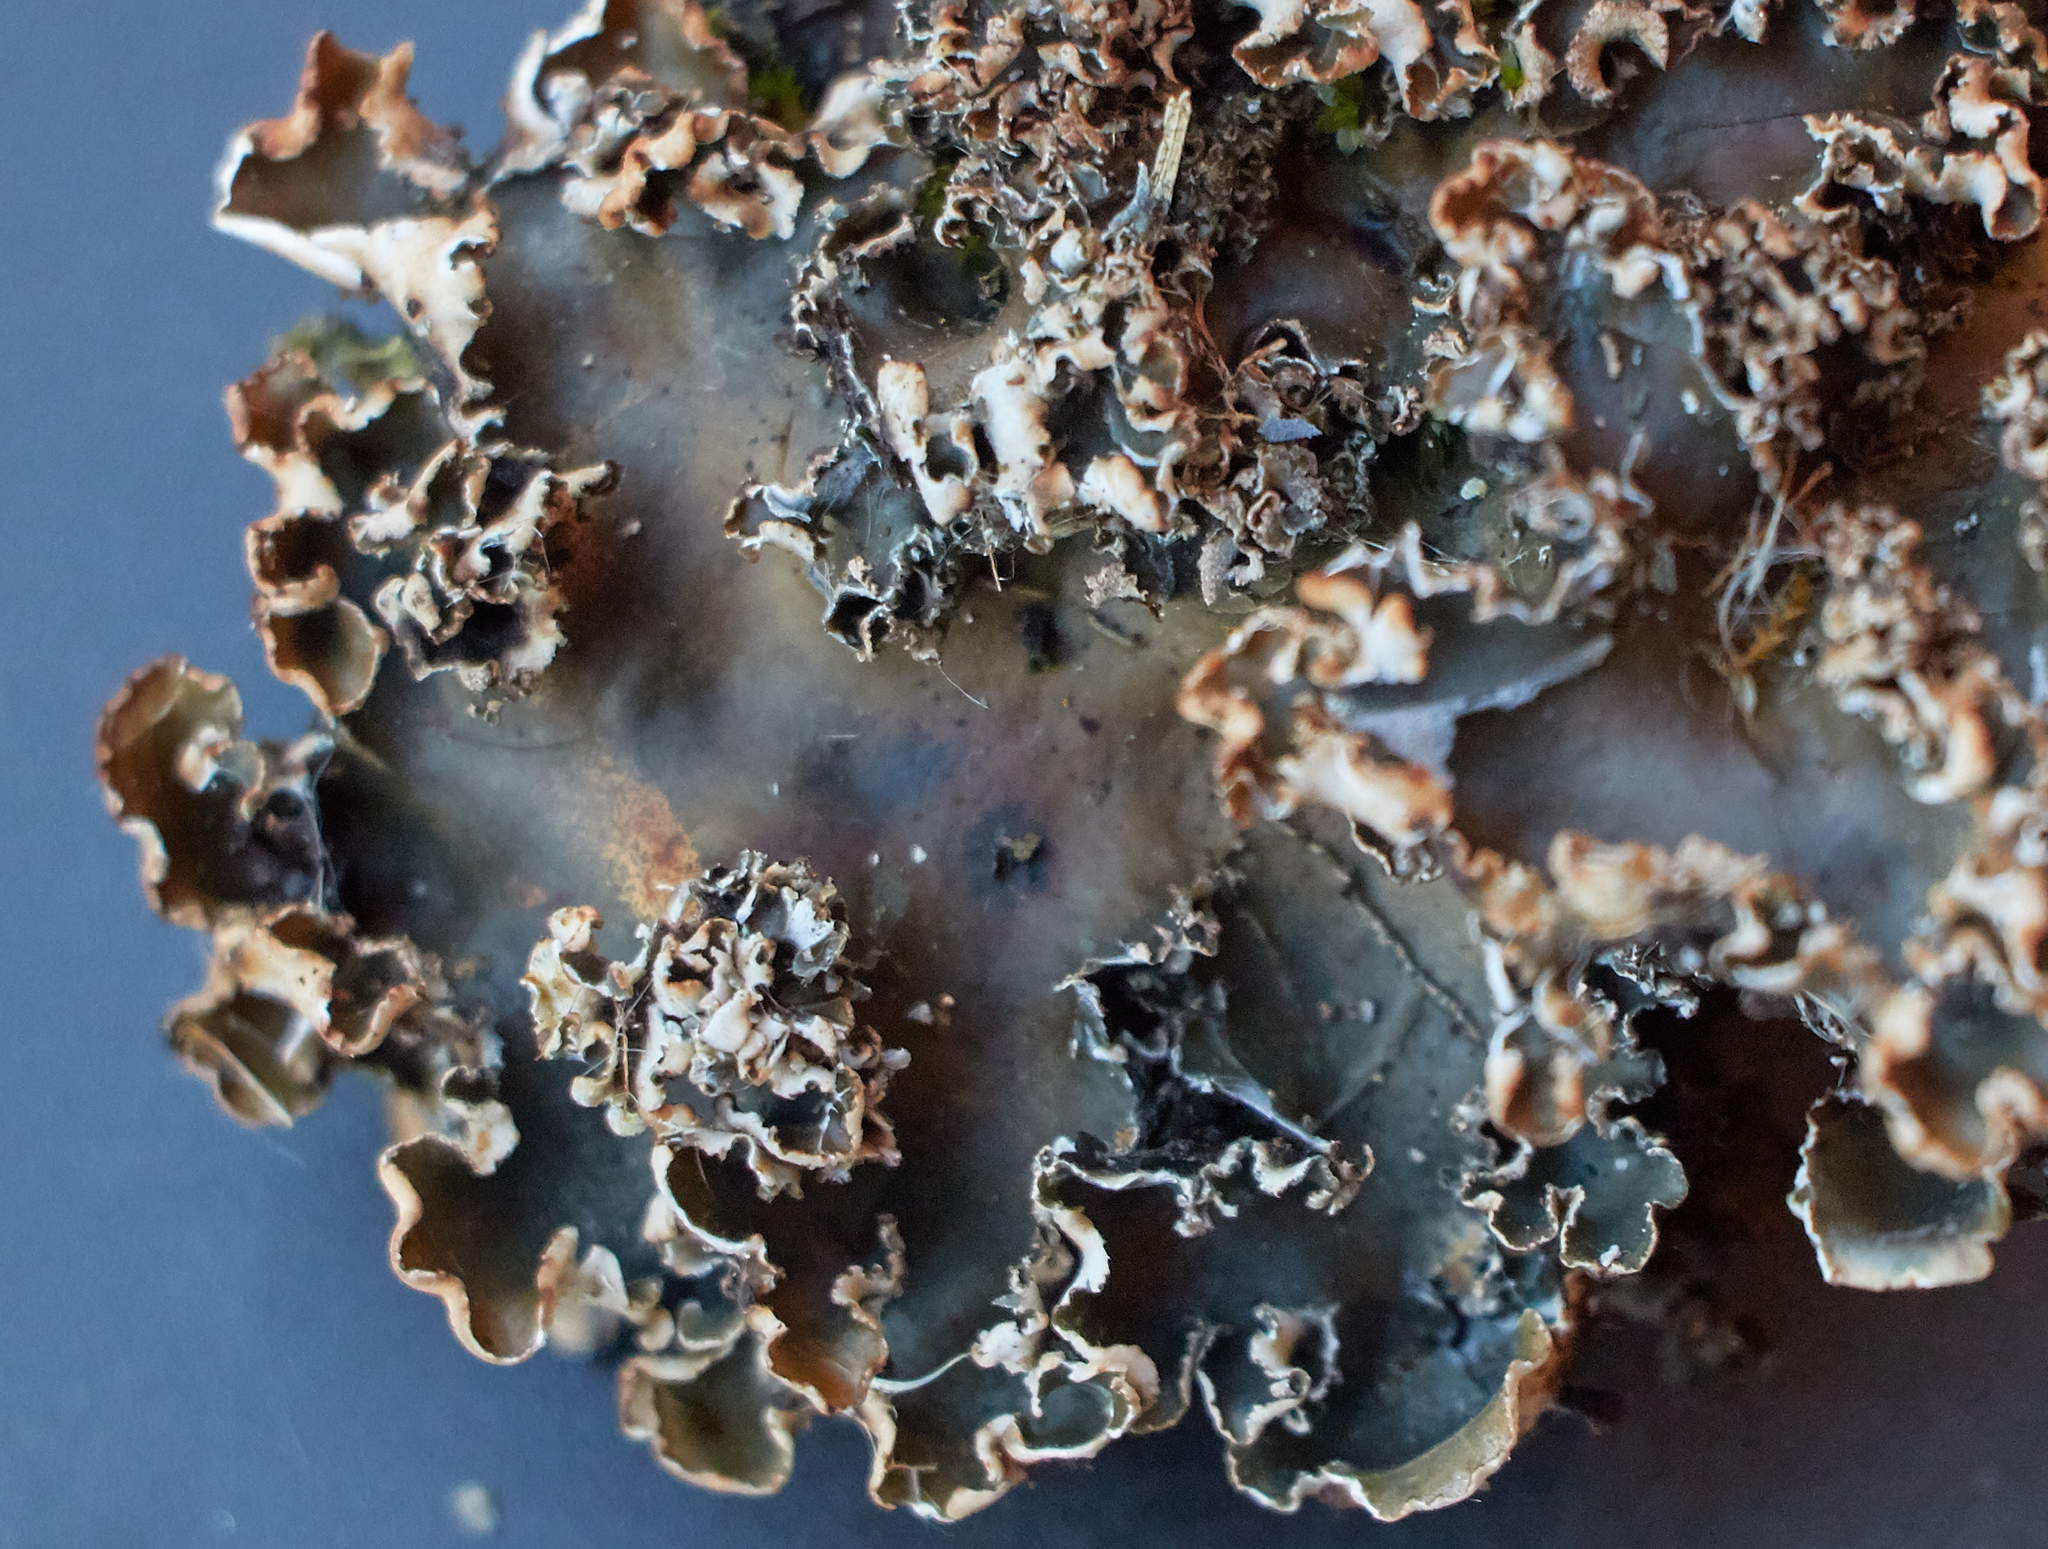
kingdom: Fungi
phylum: Ascomycota
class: Lecanoromycetes
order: Peltigerales
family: Peltigeraceae
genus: Peltigera
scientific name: Peltigera elisabethae
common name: Concentric pelt lichen
